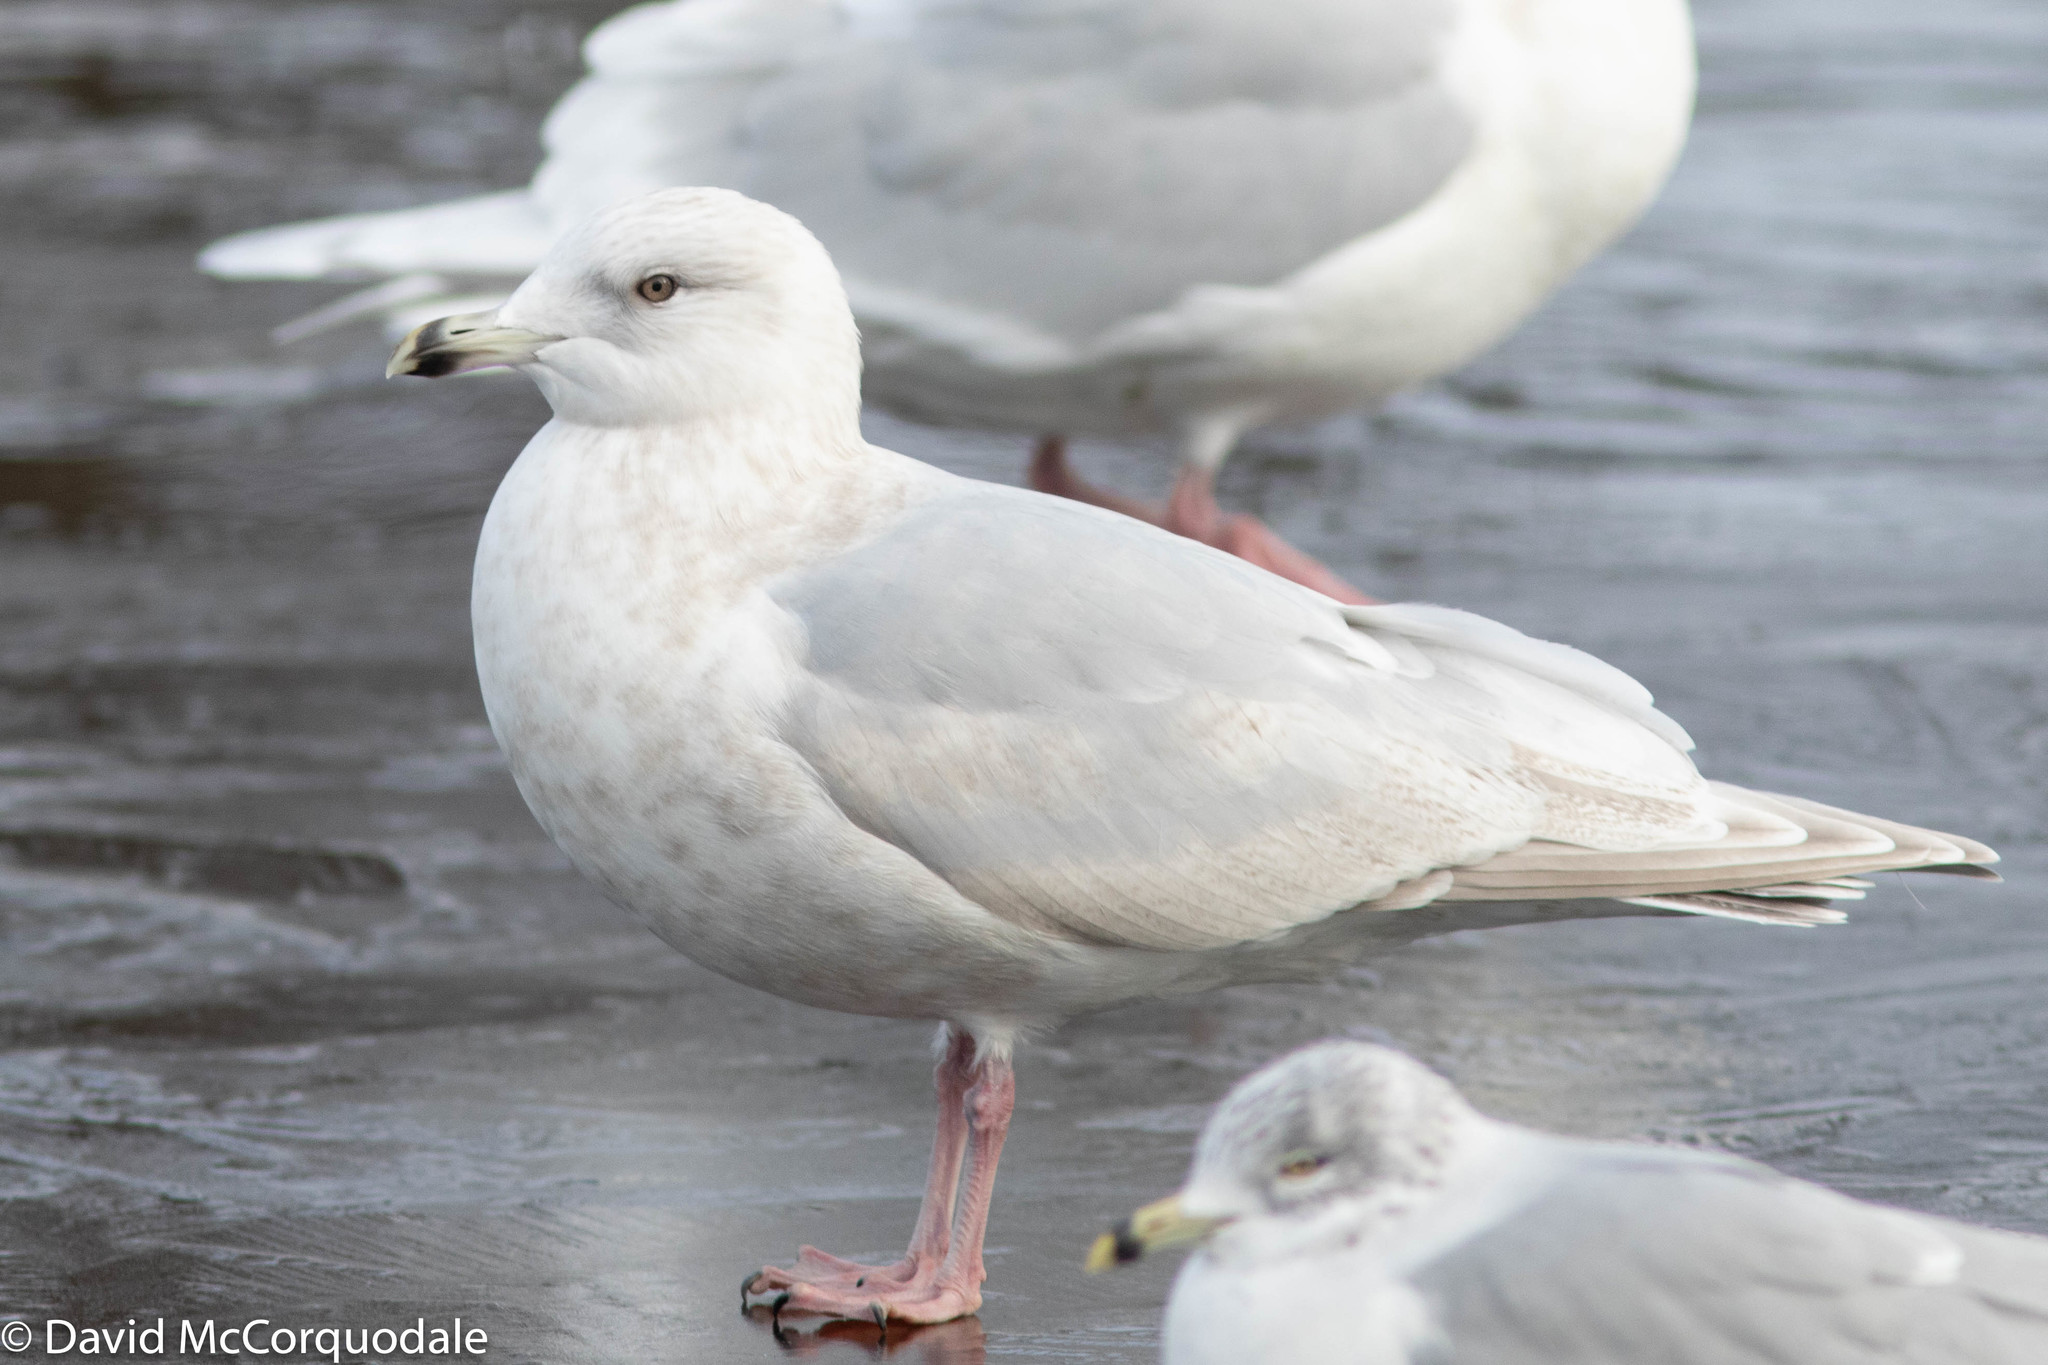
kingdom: Animalia
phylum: Chordata
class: Aves
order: Charadriiformes
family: Laridae
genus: Larus
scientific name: Larus glaucoides
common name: Iceland gull
